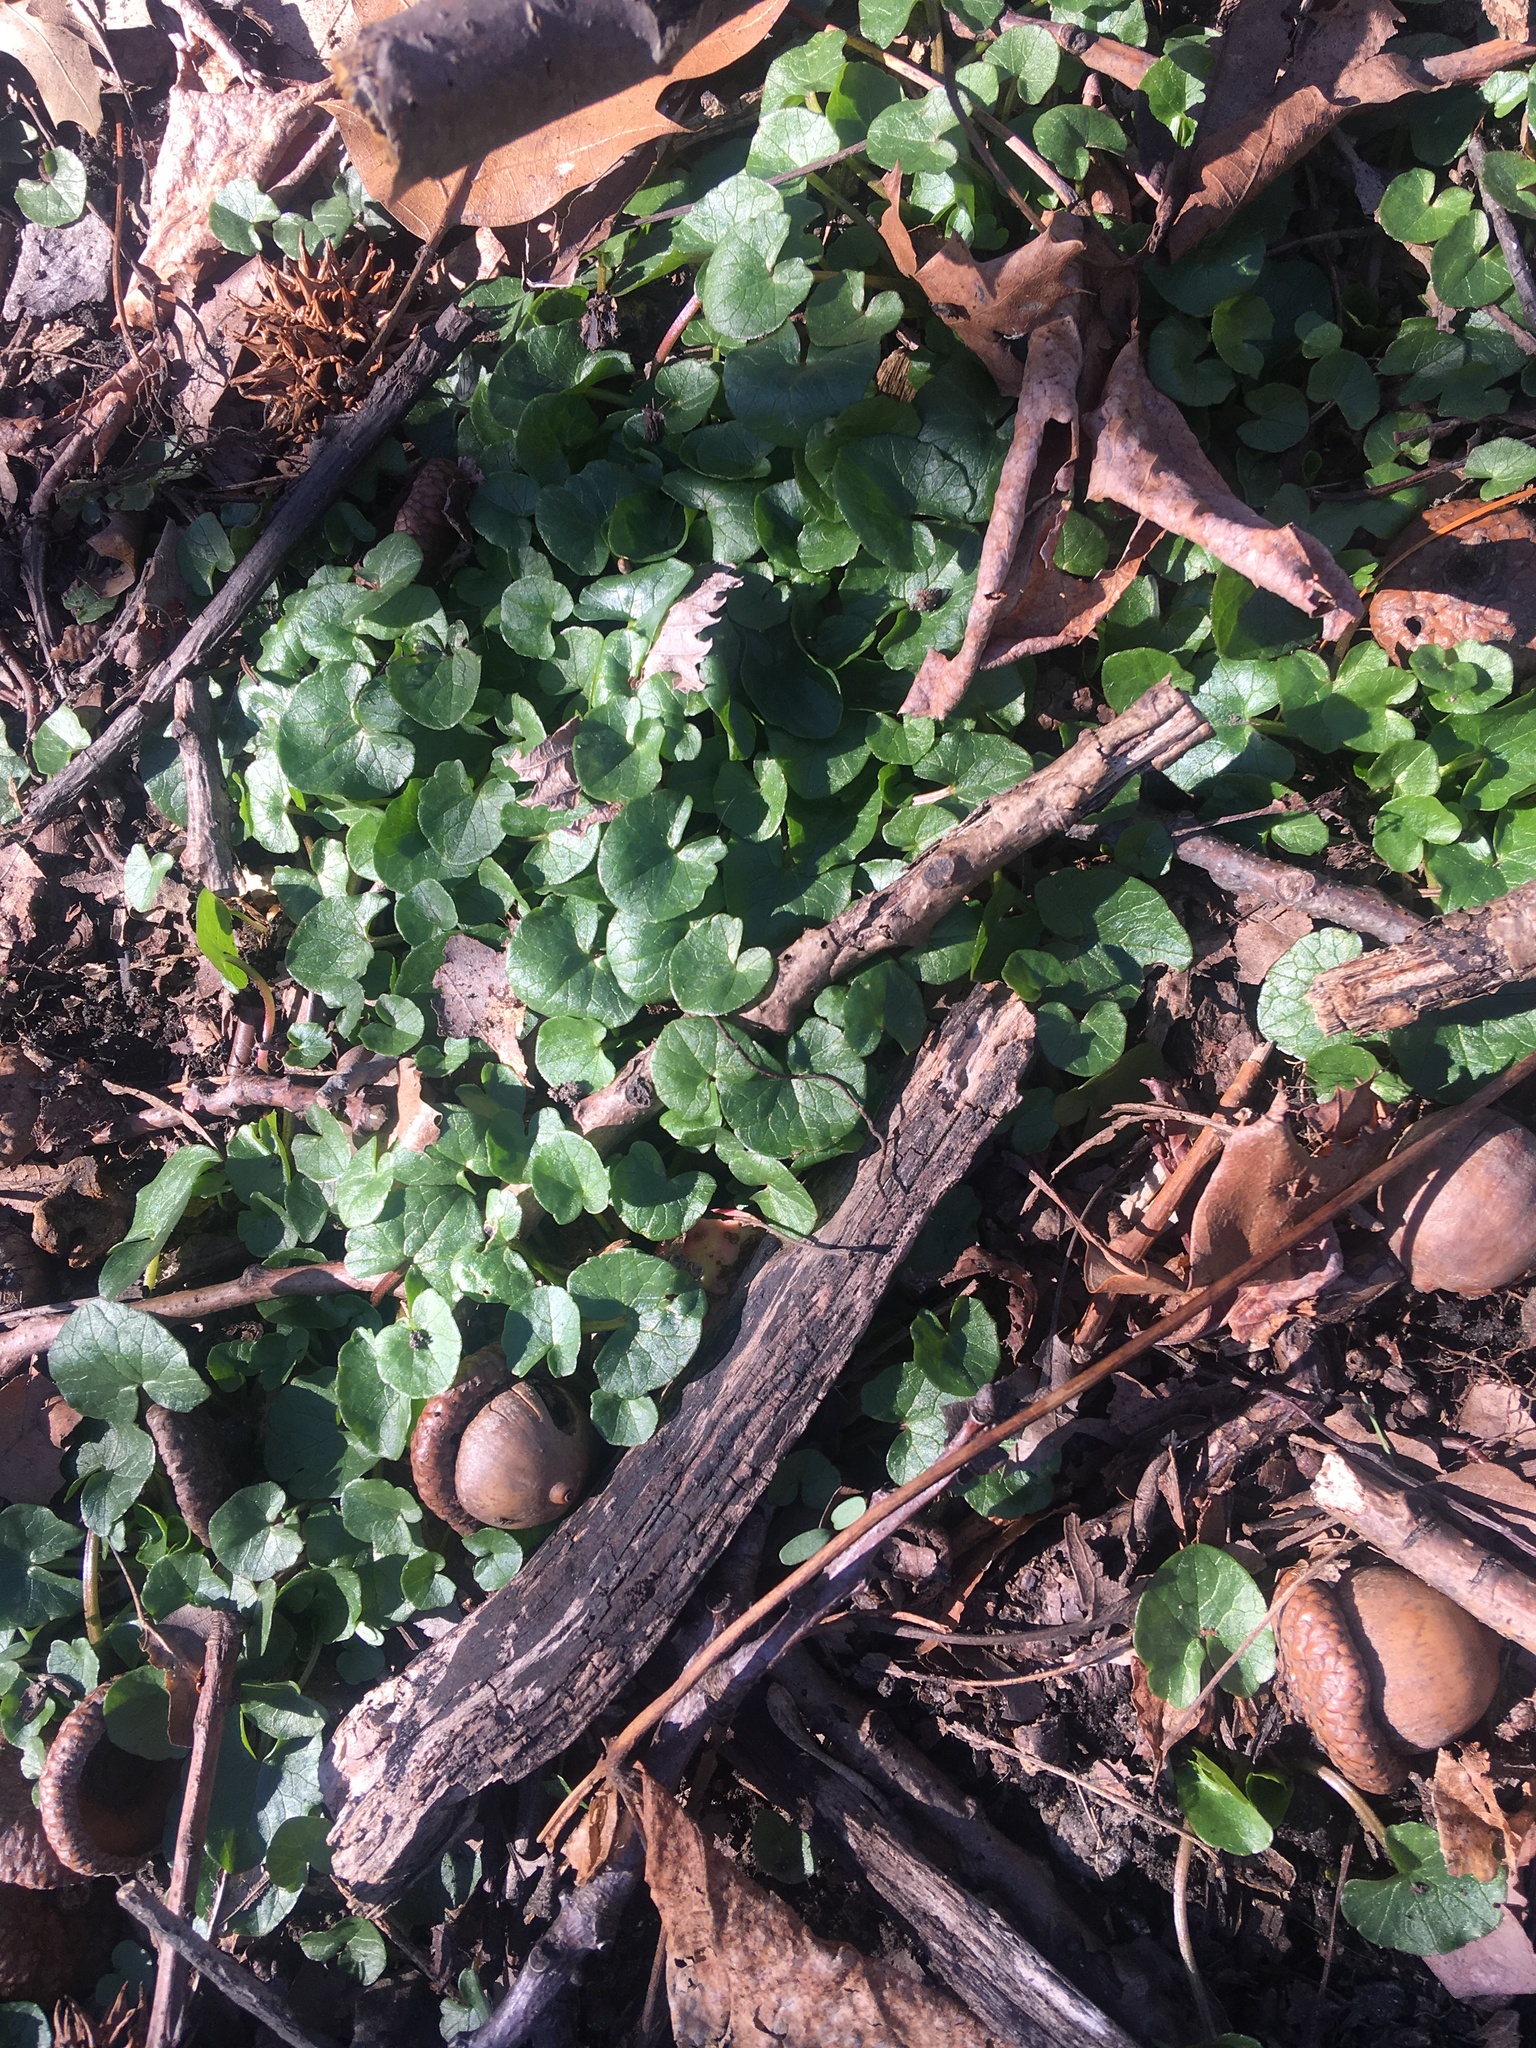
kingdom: Plantae
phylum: Tracheophyta
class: Magnoliopsida
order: Ranunculales
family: Ranunculaceae
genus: Ficaria
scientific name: Ficaria verna
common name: Lesser celandine
